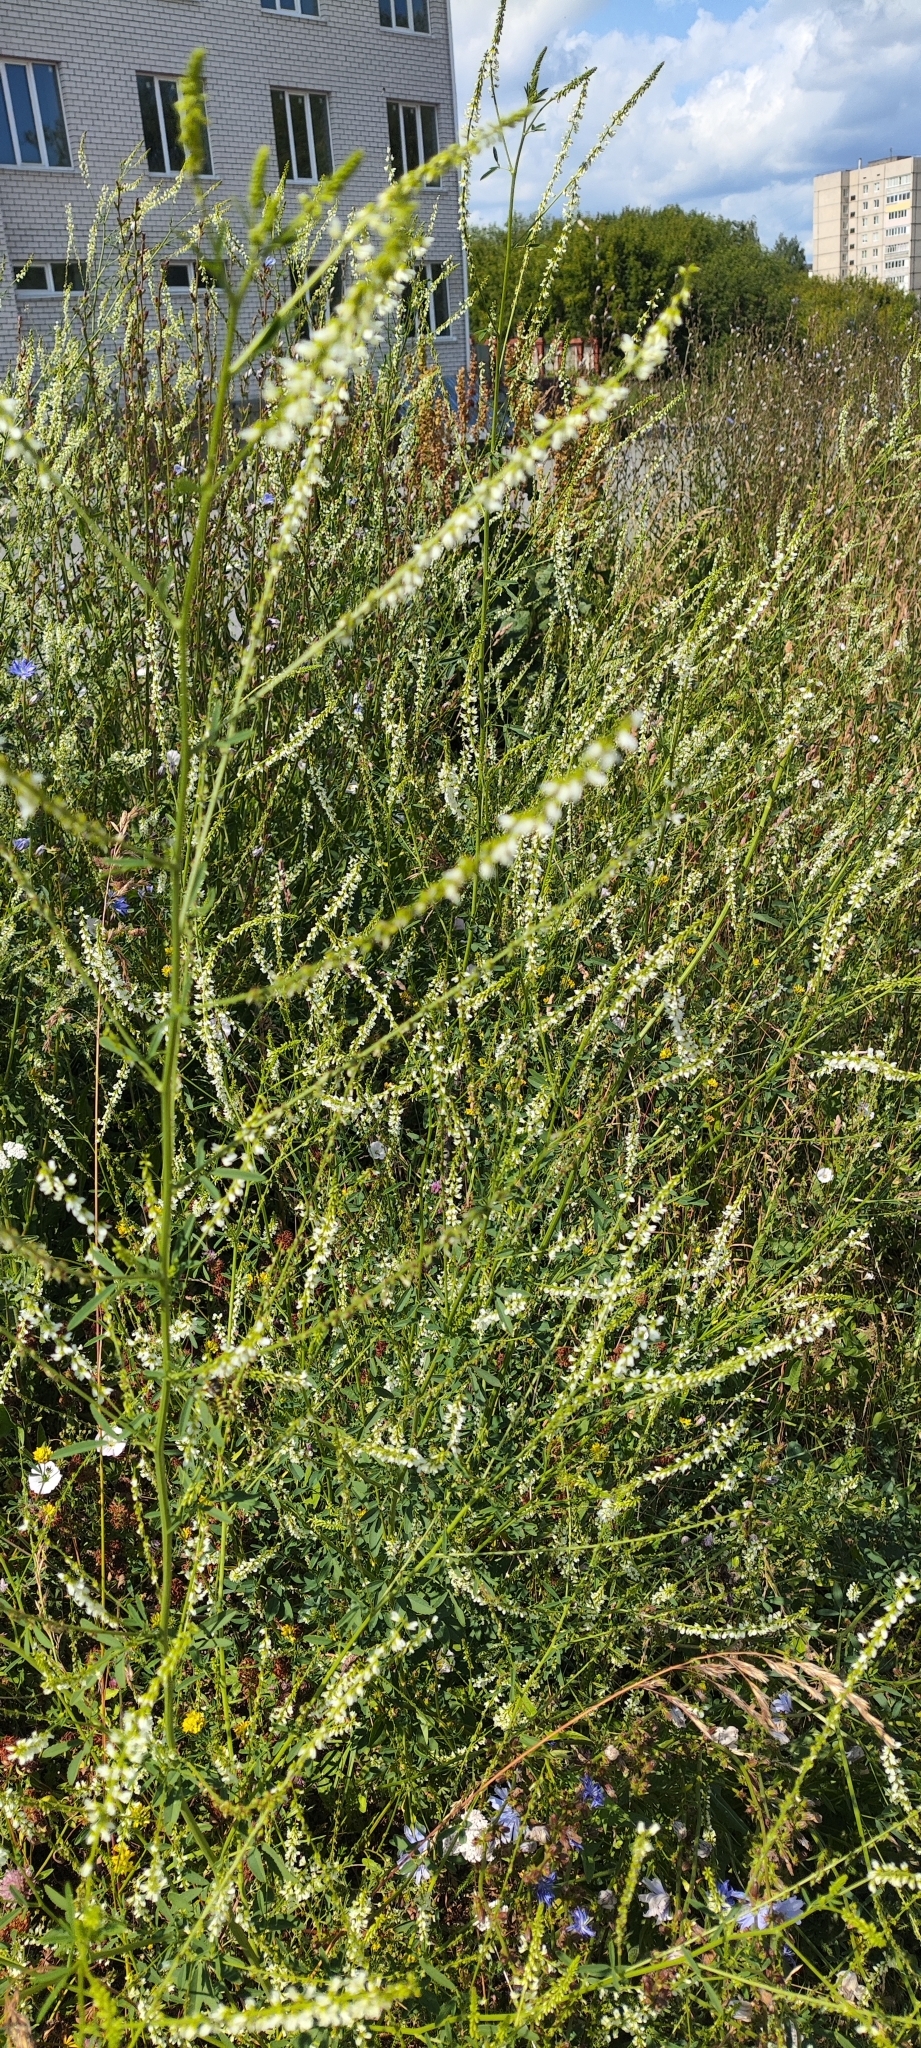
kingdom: Plantae
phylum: Tracheophyta
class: Magnoliopsida
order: Fabales
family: Fabaceae
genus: Melilotus
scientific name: Melilotus albus
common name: White melilot
